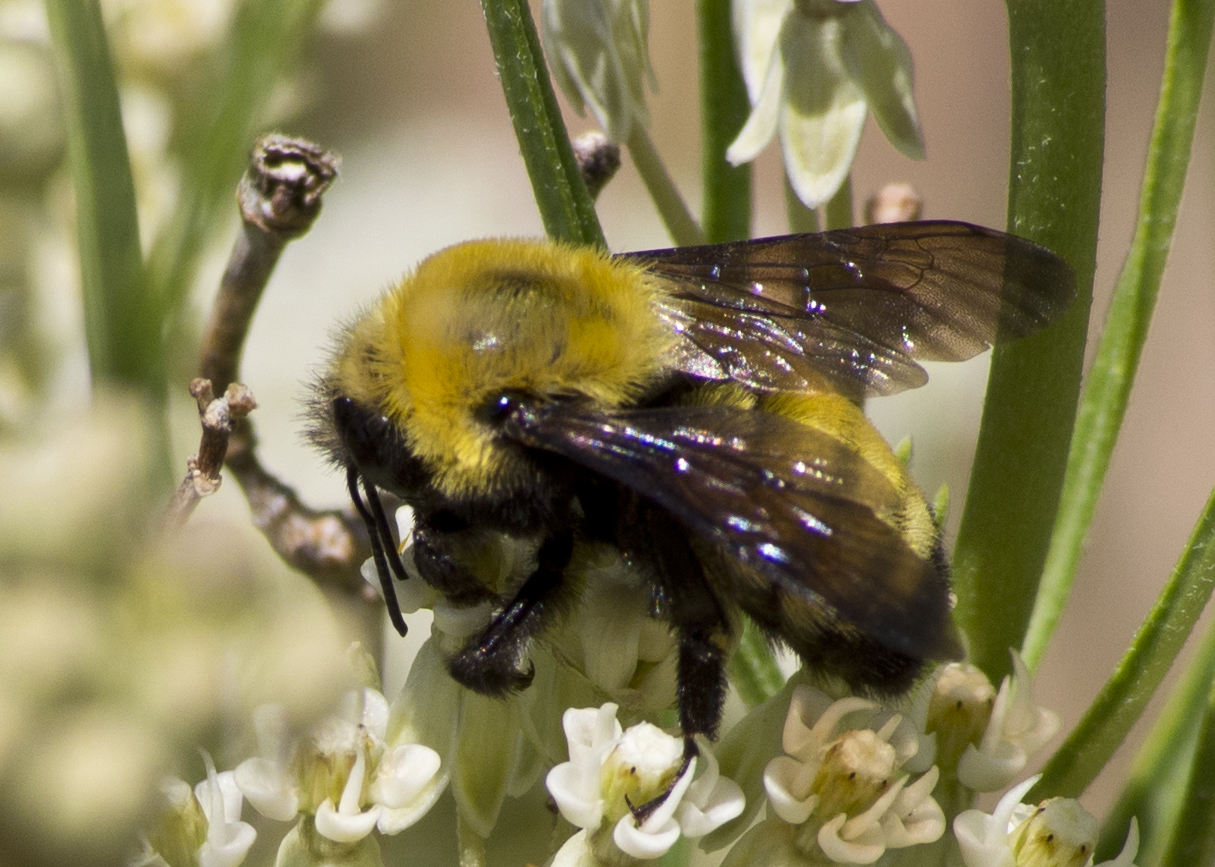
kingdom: Animalia
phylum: Arthropoda
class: Insecta
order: Hymenoptera
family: Apidae
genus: Bombus
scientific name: Bombus morrisoni
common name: Morrison bumble bee
